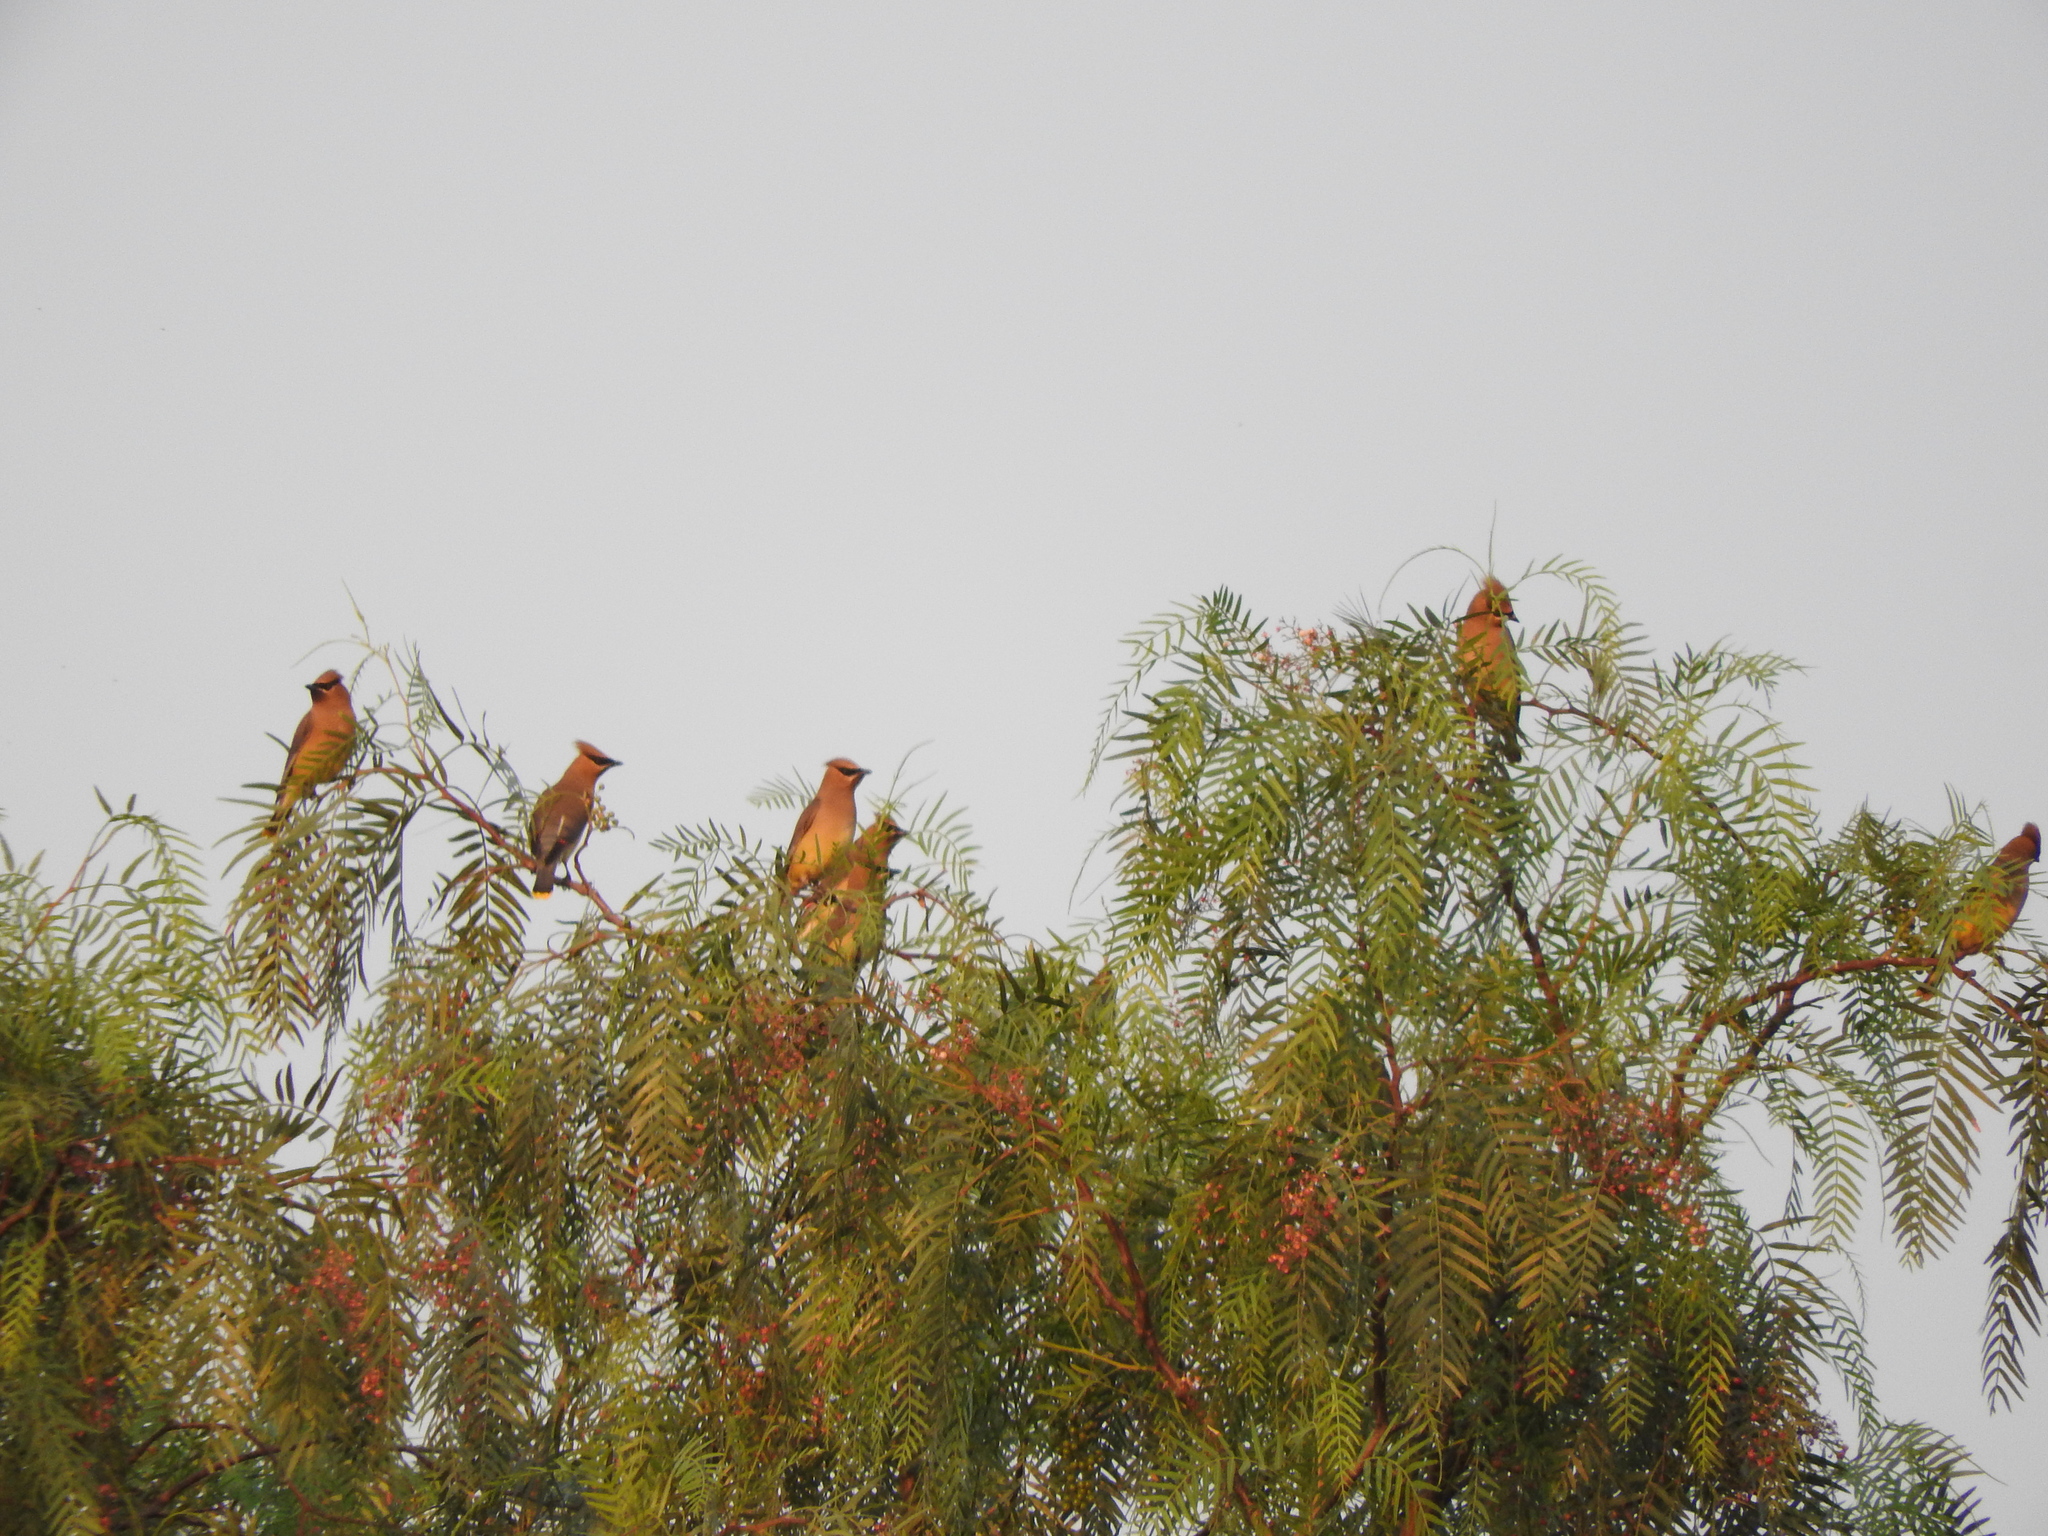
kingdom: Animalia
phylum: Chordata
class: Aves
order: Passeriformes
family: Bombycillidae
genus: Bombycilla
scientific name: Bombycilla cedrorum
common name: Cedar waxwing
